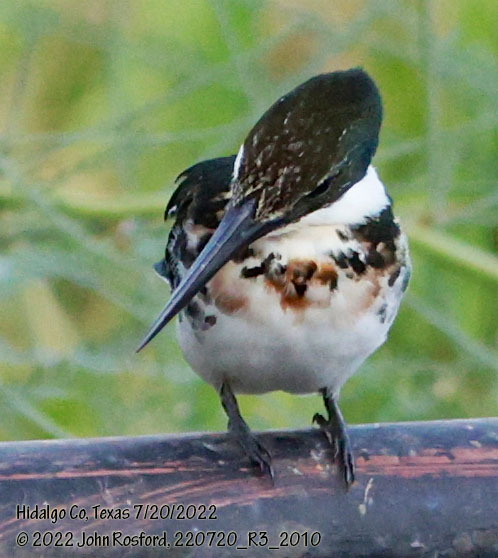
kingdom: Animalia
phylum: Chordata
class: Aves
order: Coraciiformes
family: Alcedinidae
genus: Chloroceryle
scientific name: Chloroceryle americana
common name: Green kingfisher
